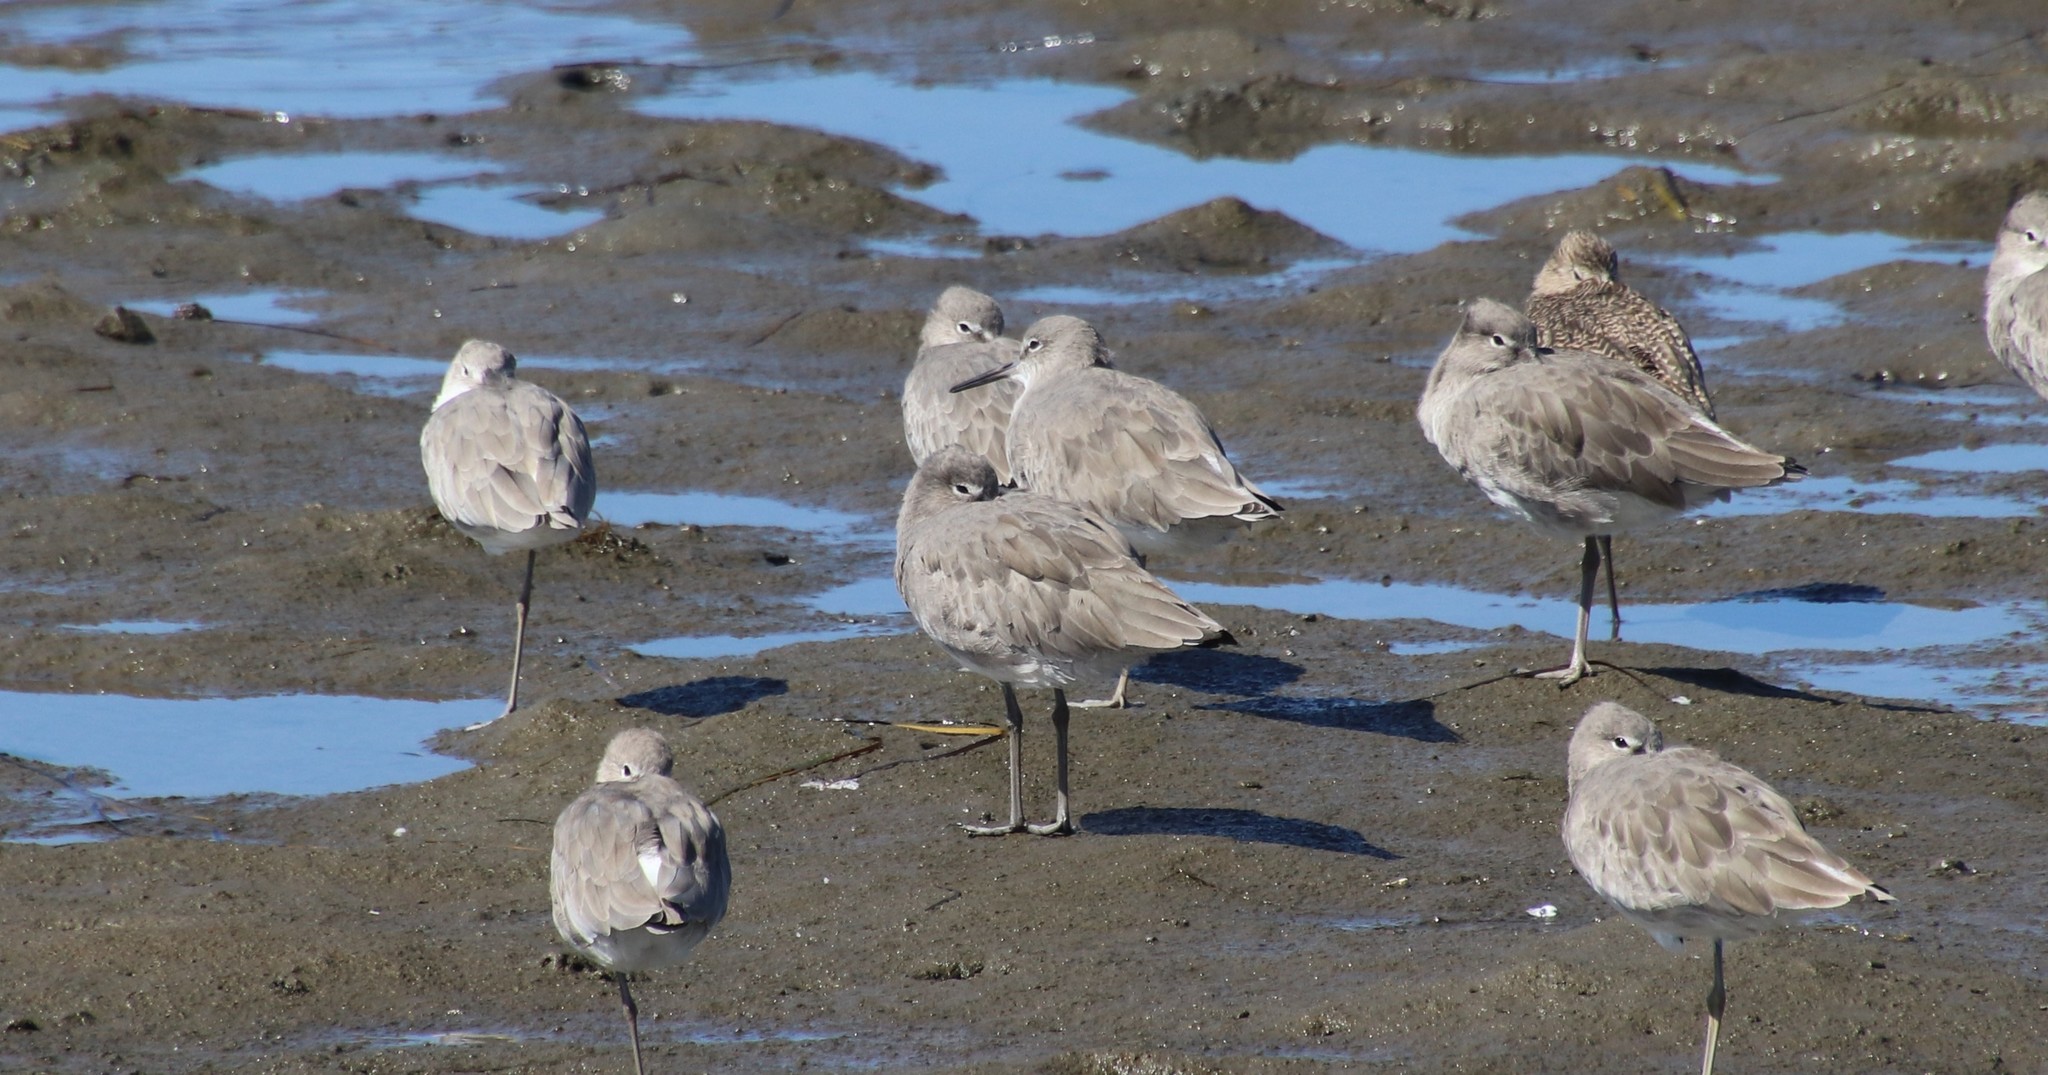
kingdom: Animalia
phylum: Chordata
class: Aves
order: Charadriiformes
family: Scolopacidae
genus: Tringa
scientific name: Tringa semipalmata
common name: Willet
